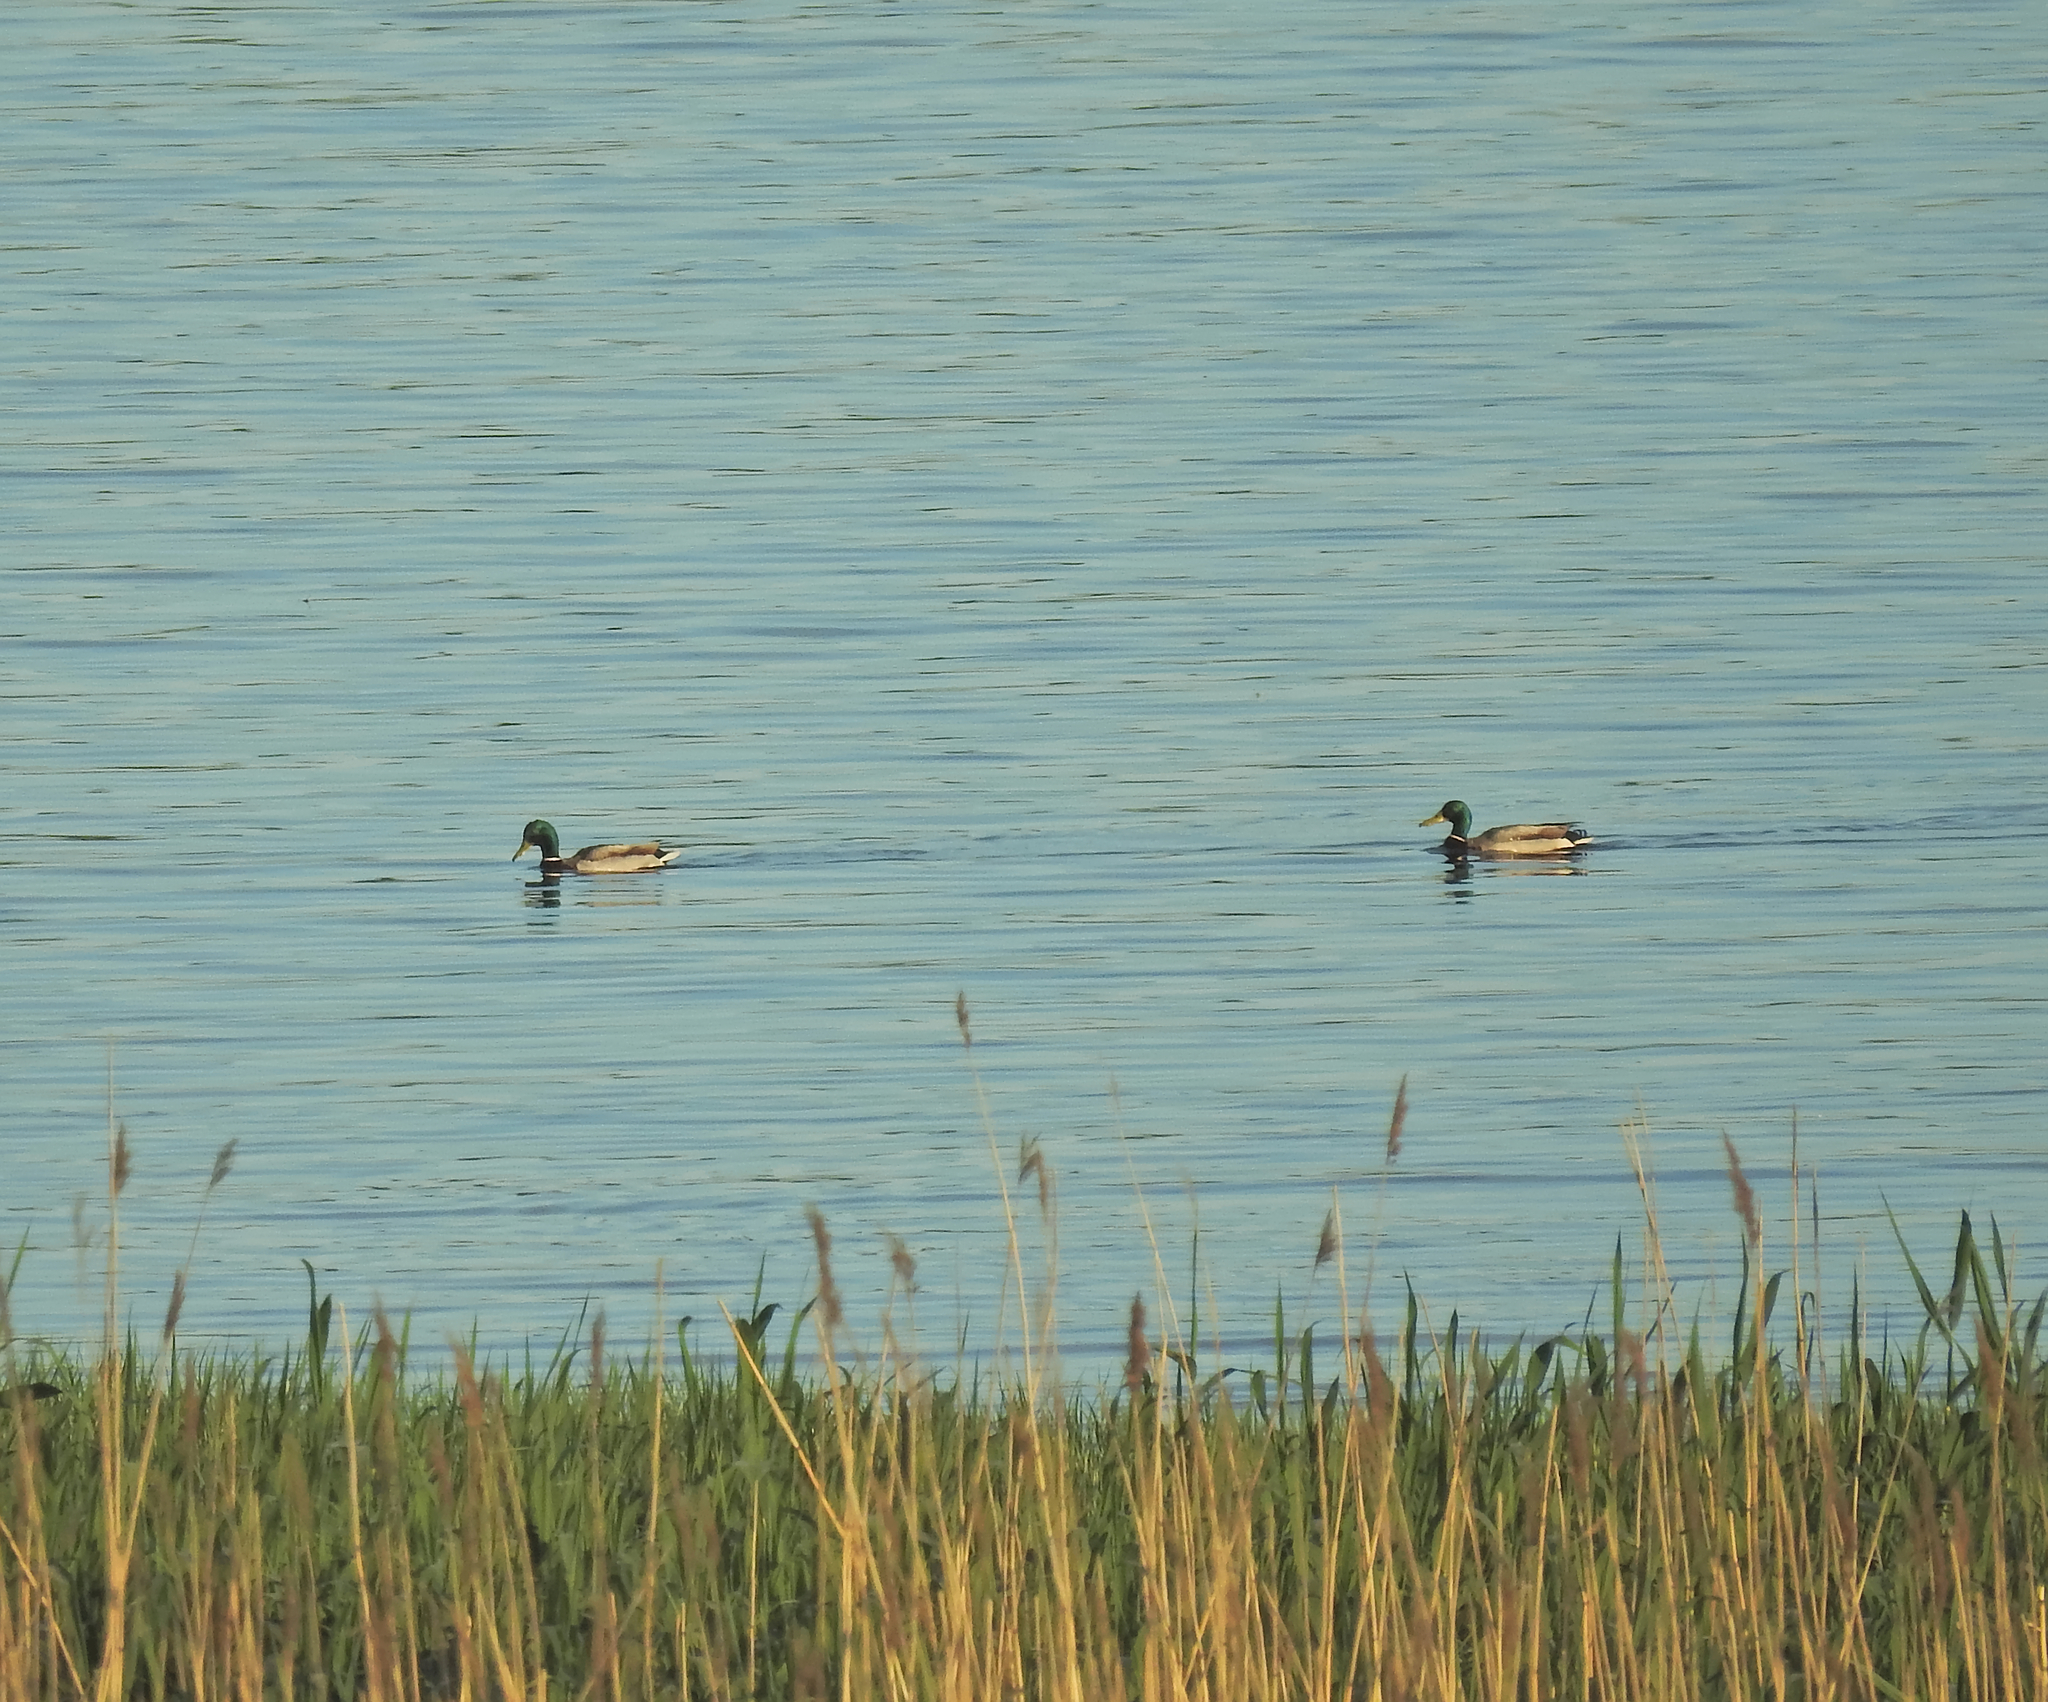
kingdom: Animalia
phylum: Chordata
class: Aves
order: Anseriformes
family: Anatidae
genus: Anas
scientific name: Anas platyrhynchos
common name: Mallard
